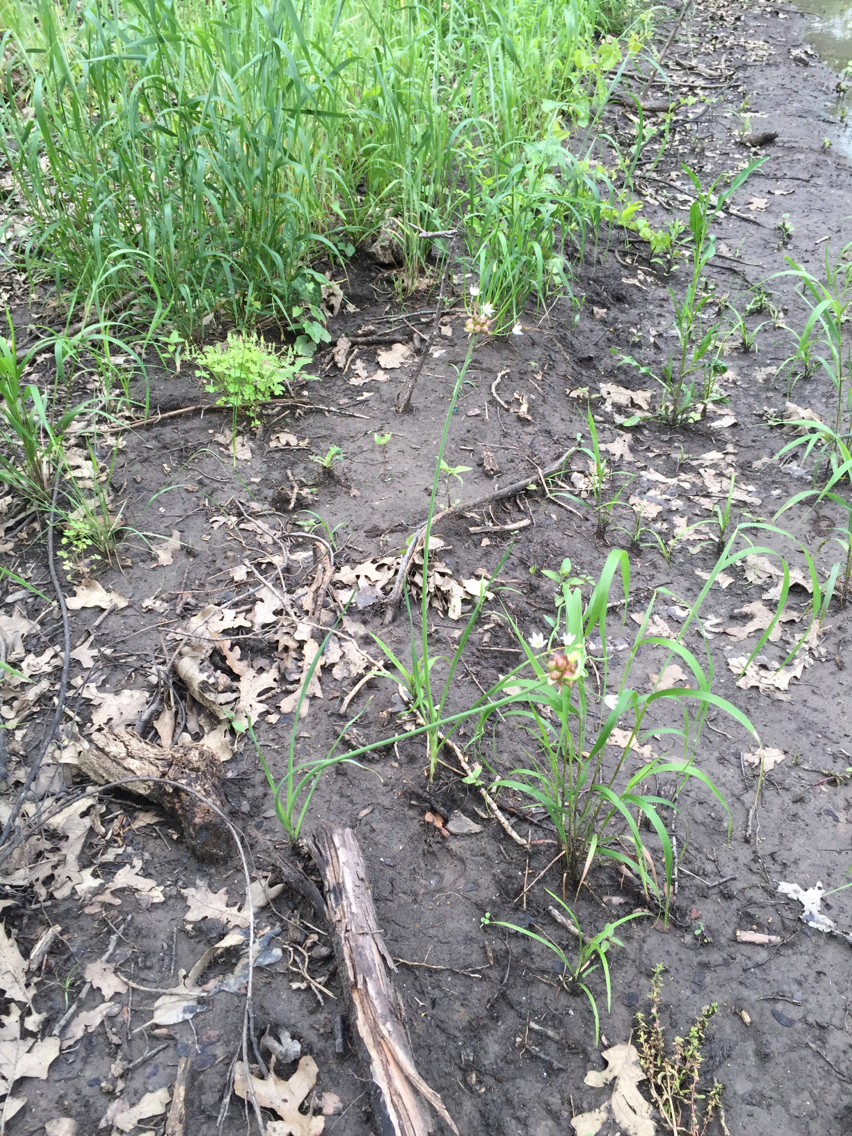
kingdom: Plantae
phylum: Tracheophyta
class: Liliopsida
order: Asparagales
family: Amaryllidaceae
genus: Allium
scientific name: Allium canadense
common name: Meadow garlic
